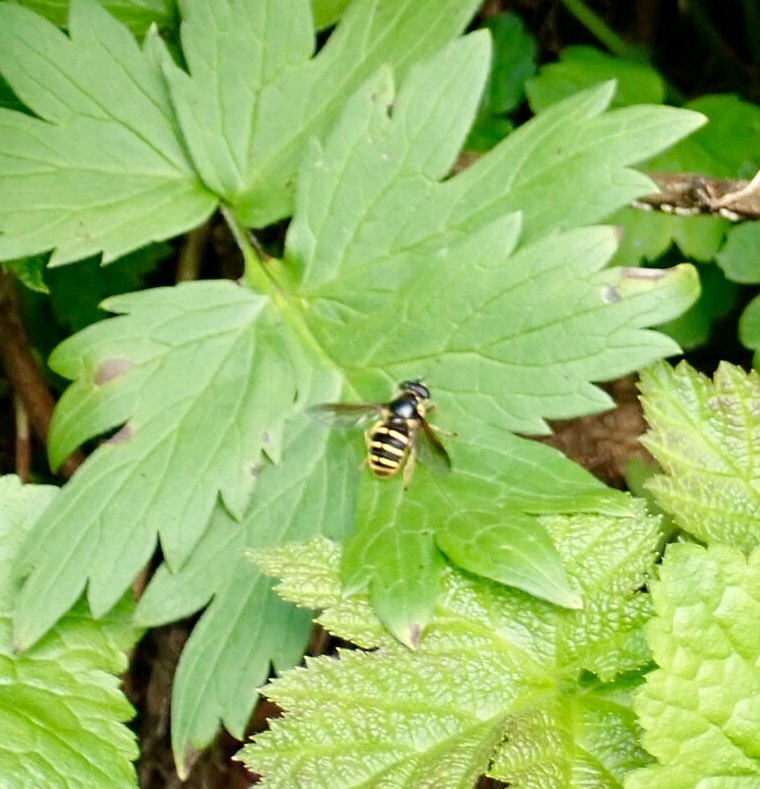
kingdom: Animalia
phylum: Arthropoda
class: Insecta
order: Diptera
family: Syrphidae
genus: Sericomyia
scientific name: Sericomyia chalcopyga
